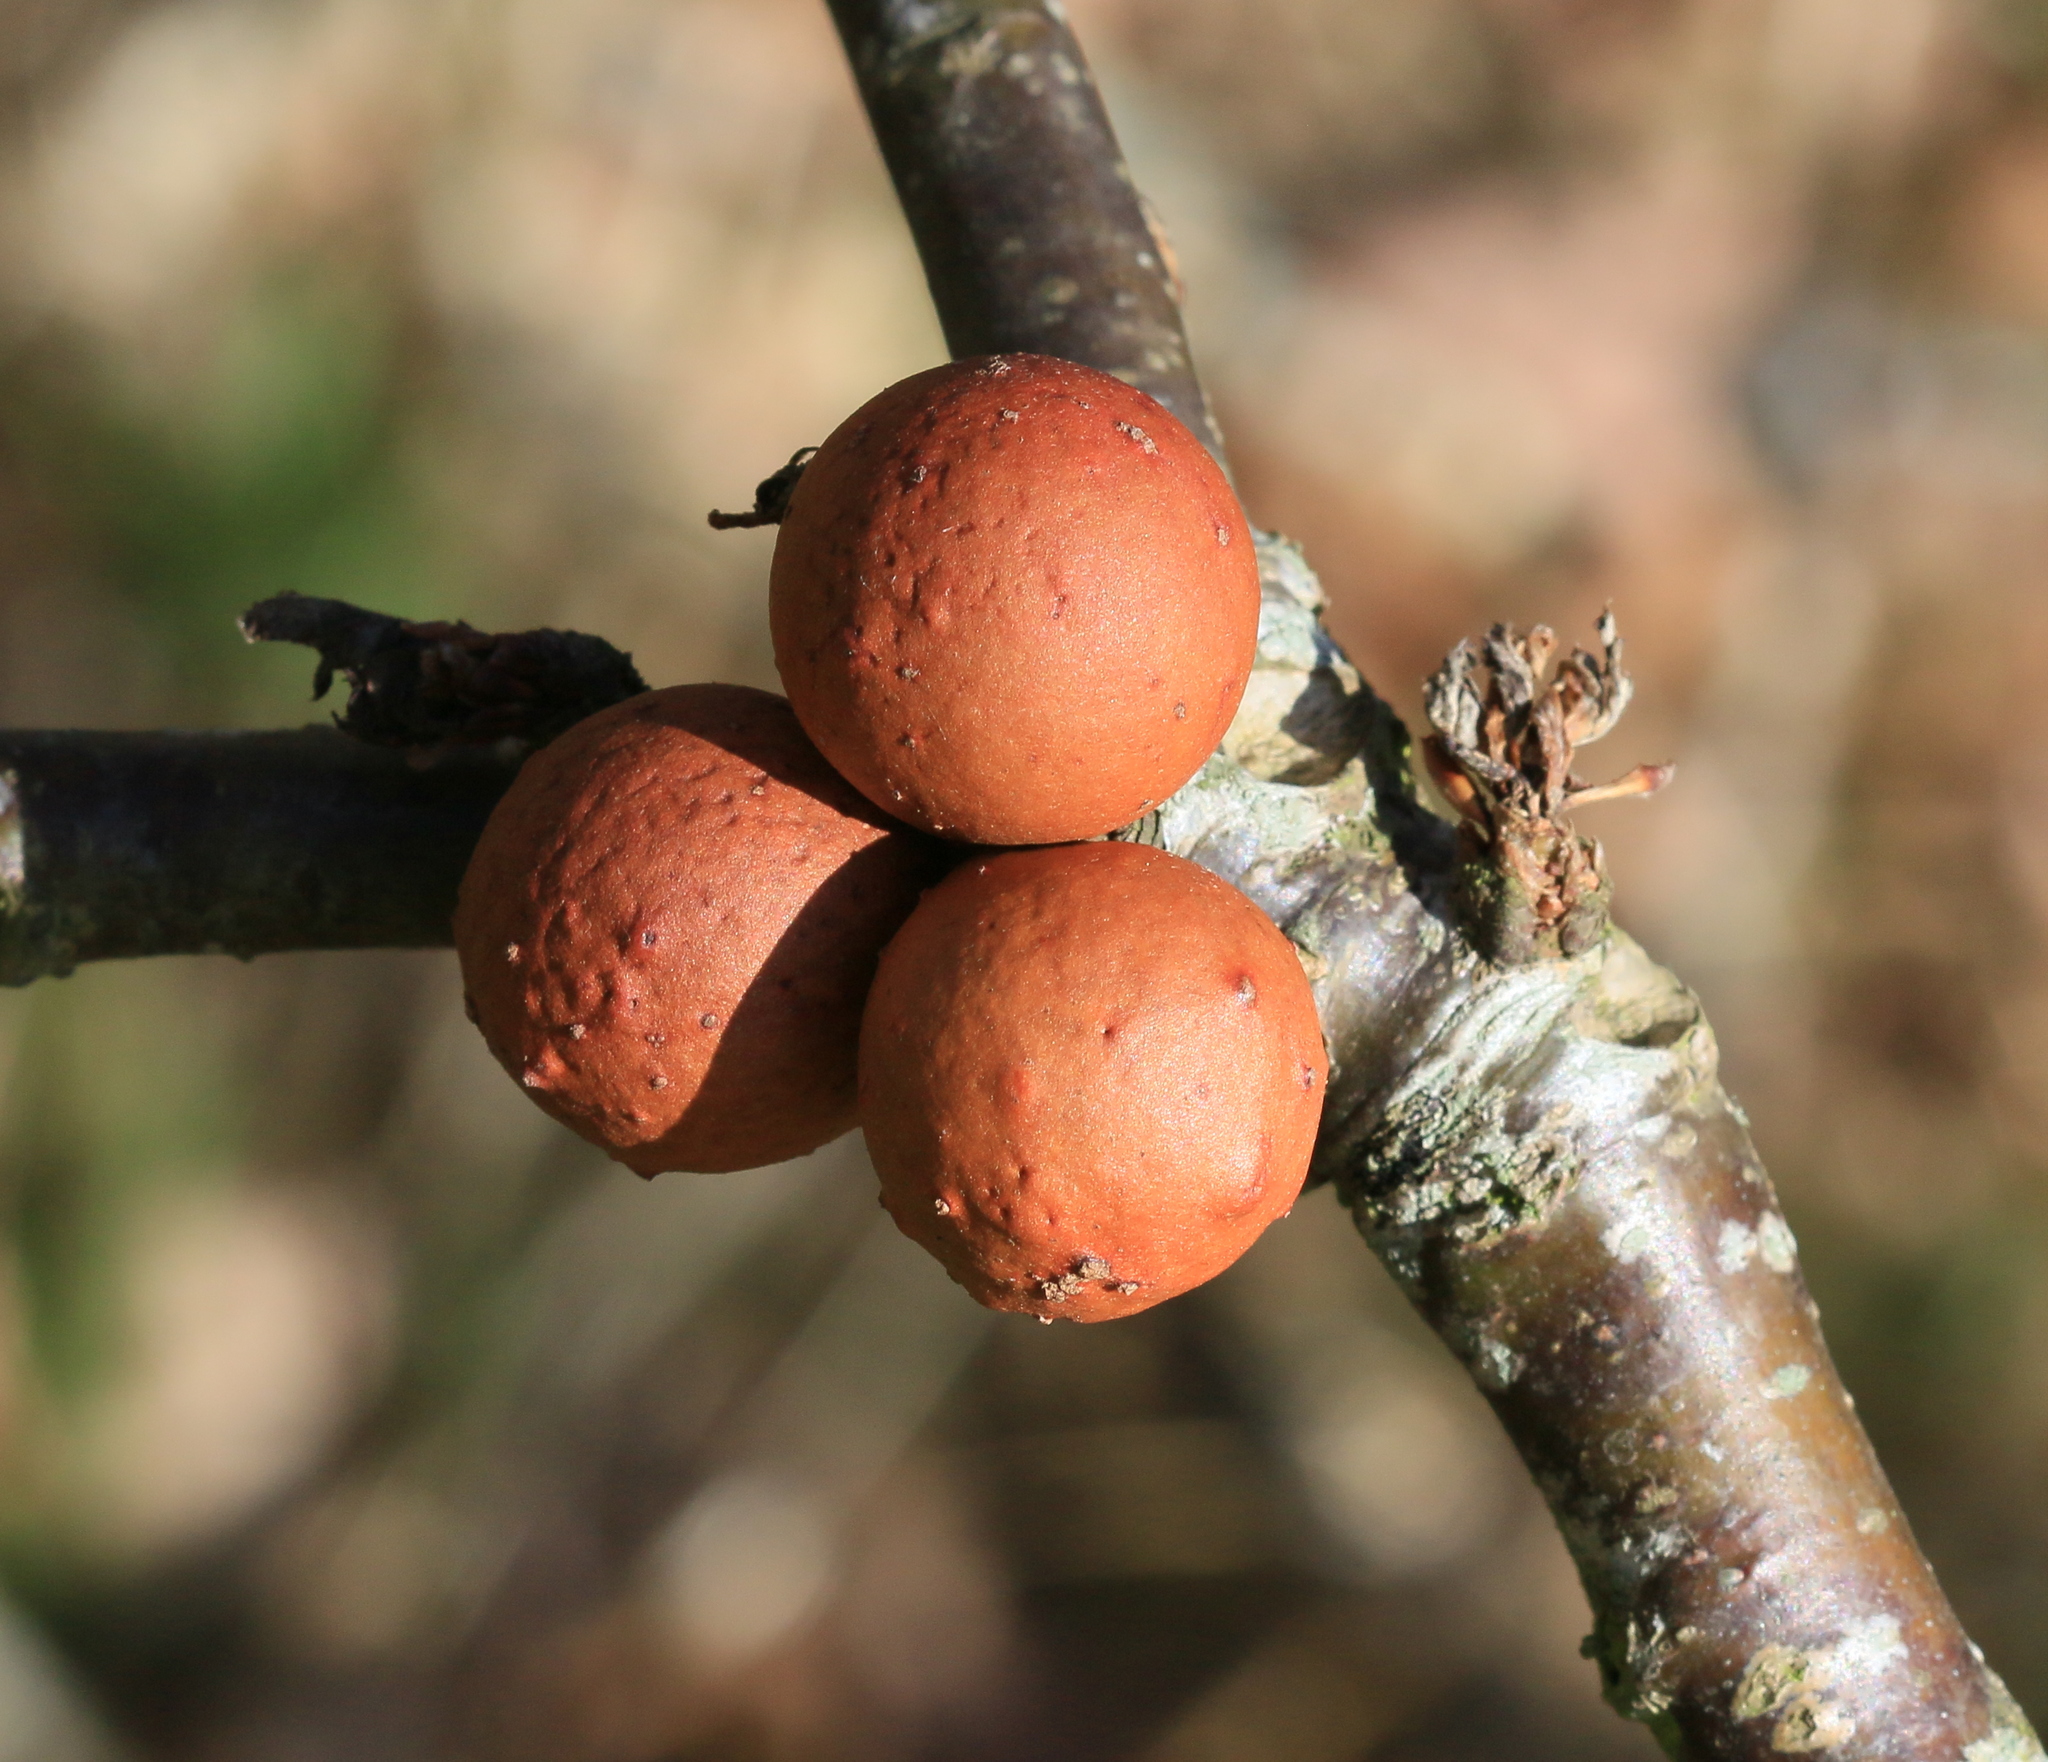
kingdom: Animalia
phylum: Arthropoda
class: Insecta
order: Hymenoptera
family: Cynipidae
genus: Andricus
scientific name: Andricus kollari
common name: Marble gall
